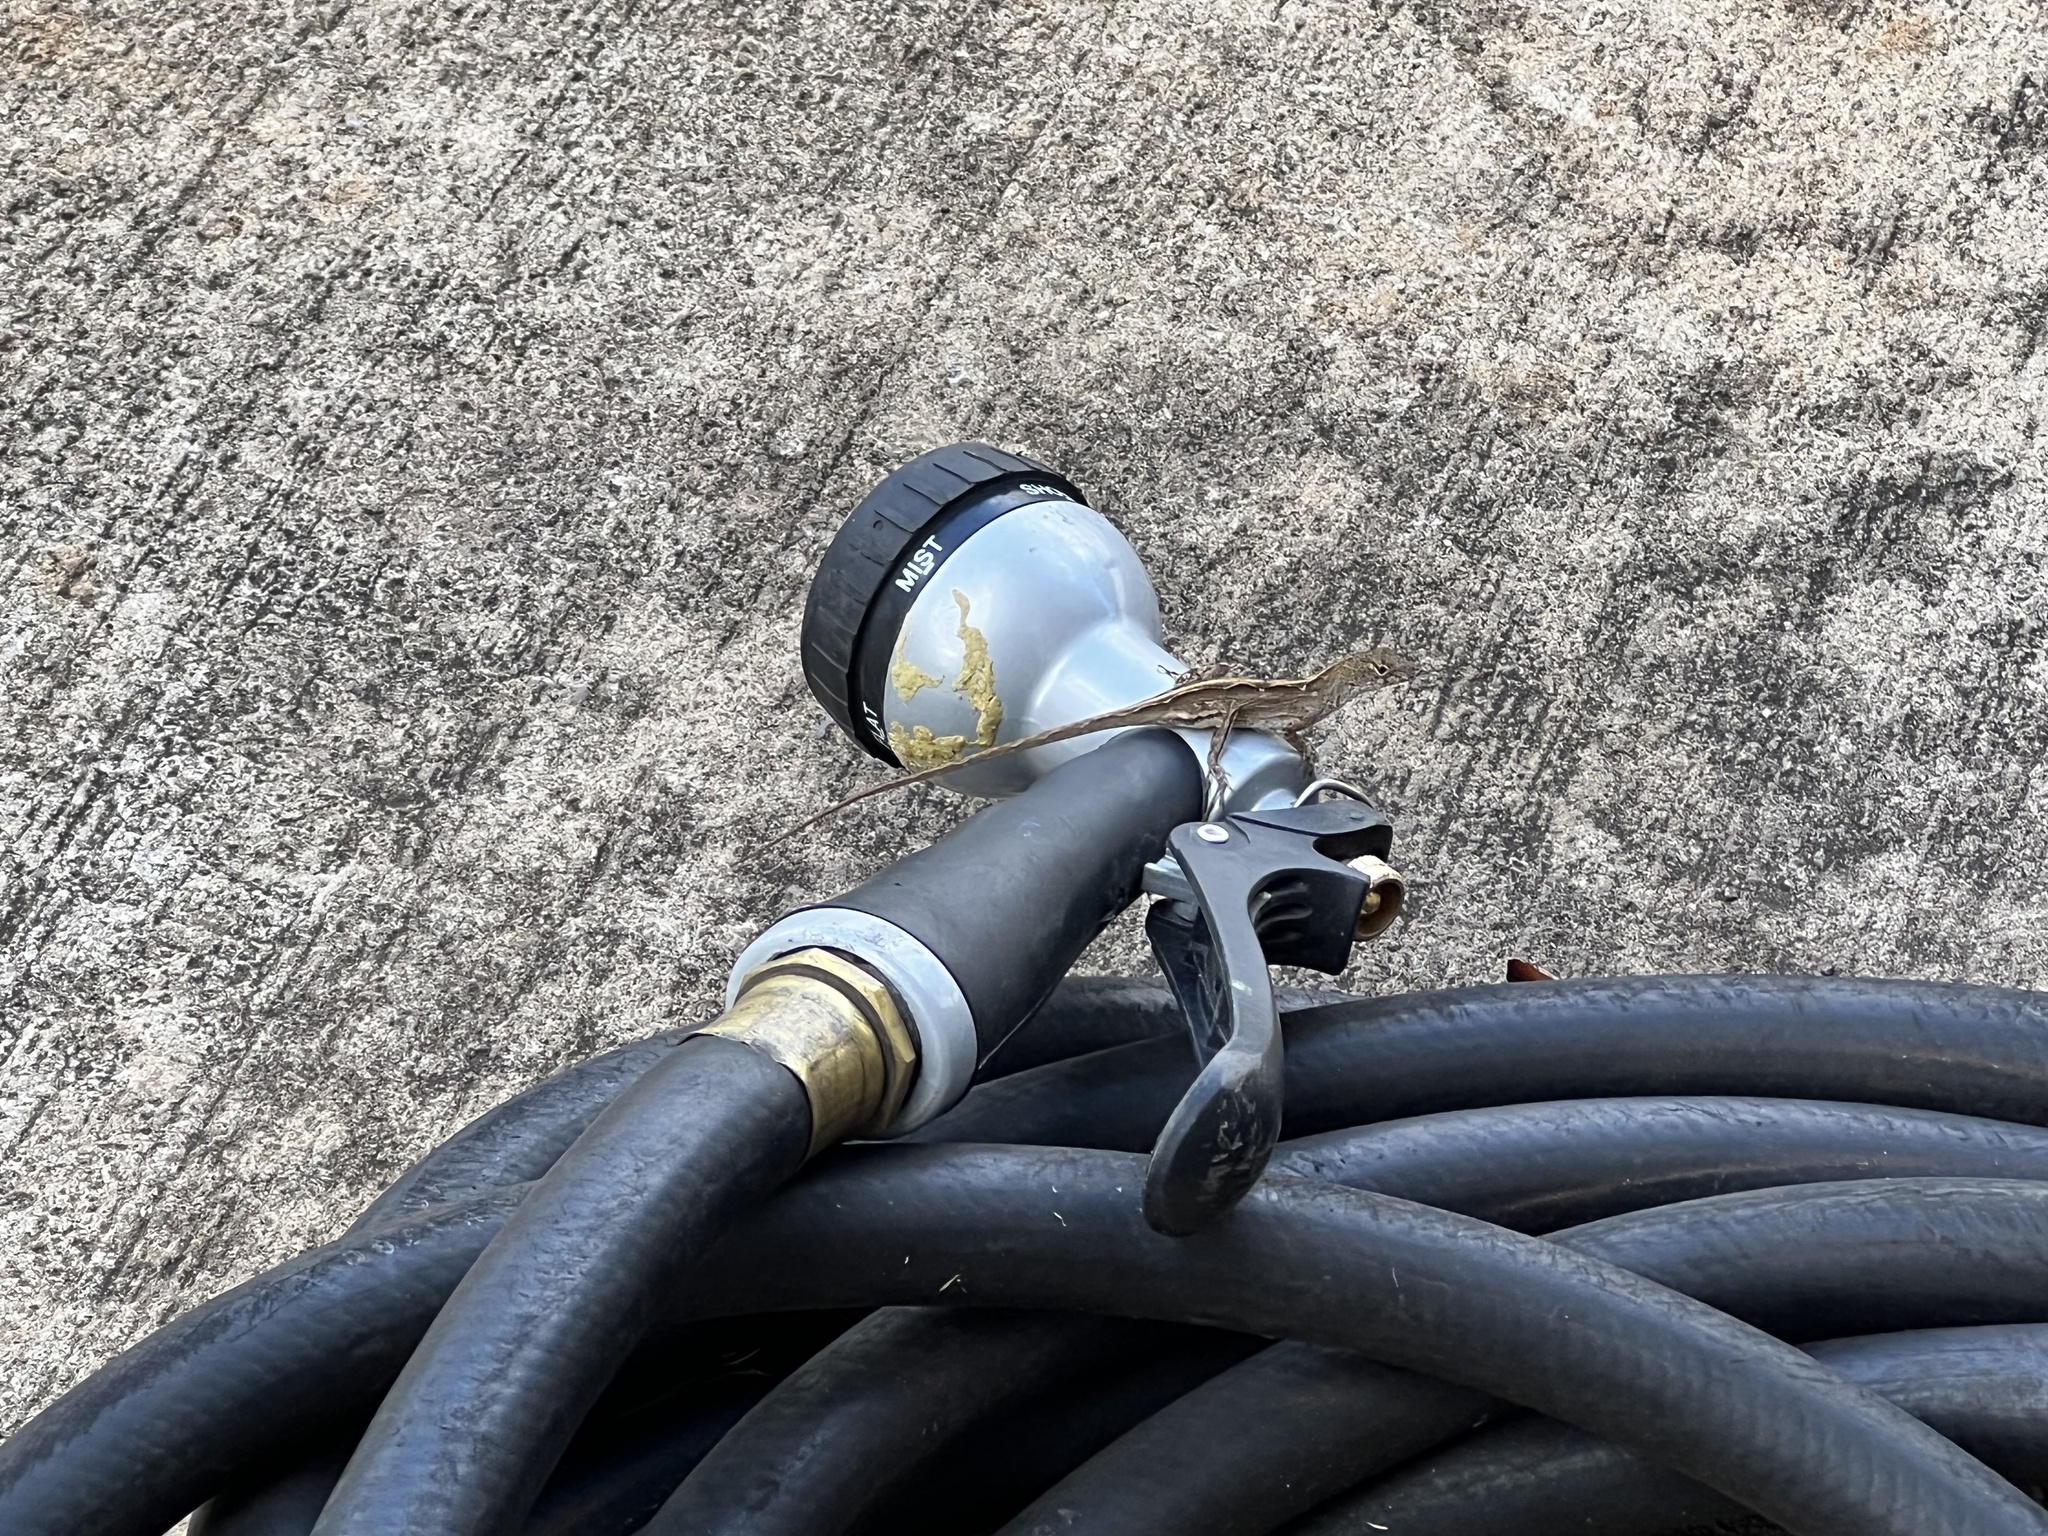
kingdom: Animalia
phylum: Chordata
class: Squamata
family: Dactyloidae
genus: Anolis
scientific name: Anolis sagrei
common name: Brown anole
